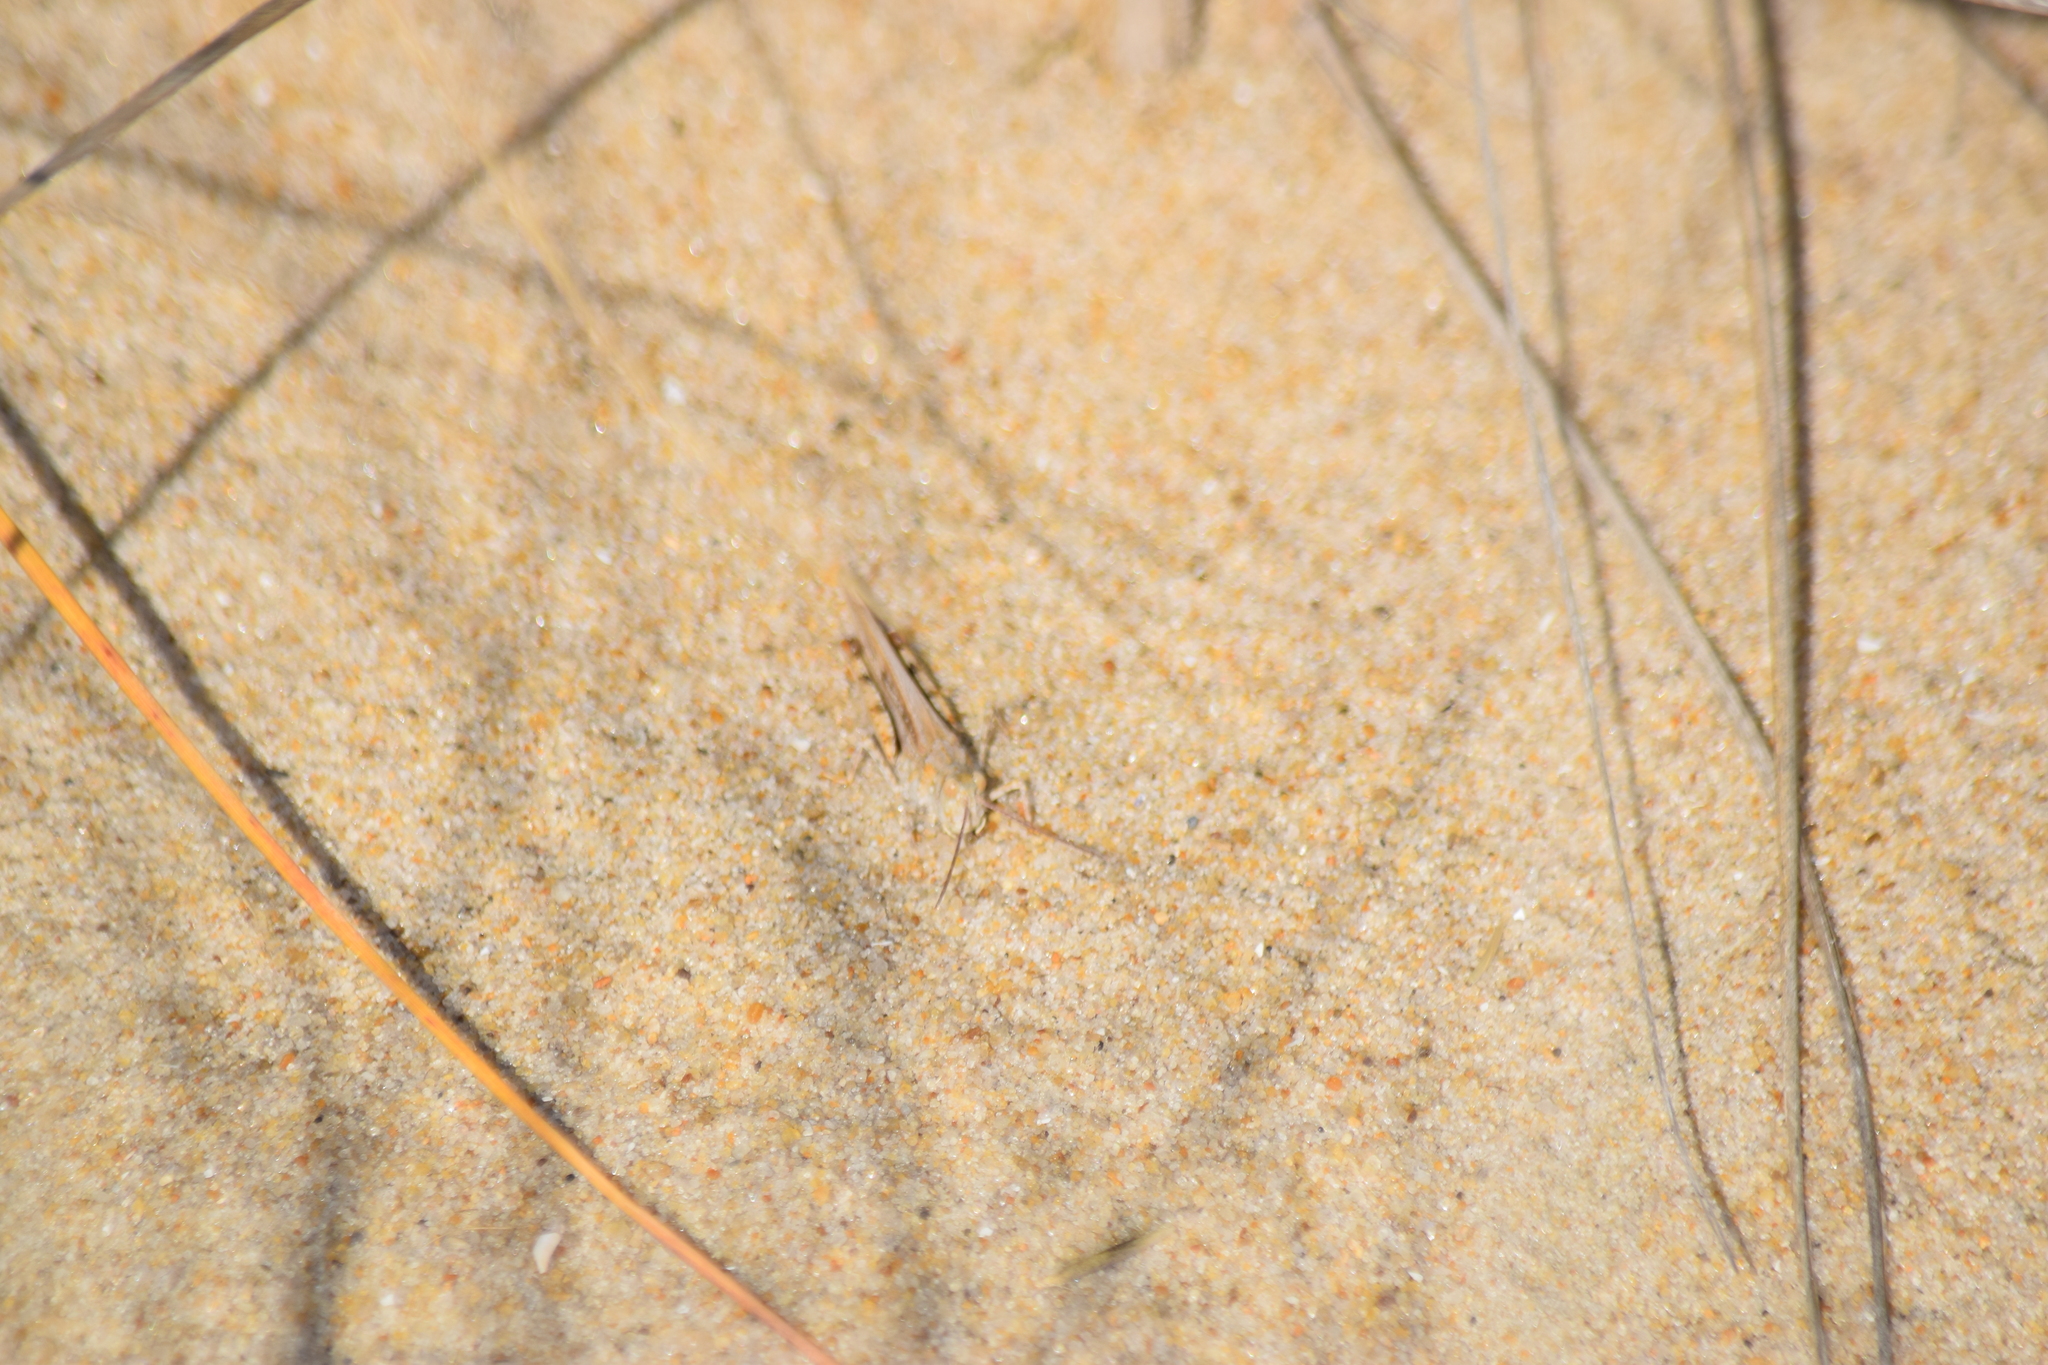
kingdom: Animalia
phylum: Arthropoda
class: Insecta
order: Orthoptera
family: Acrididae
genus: Trimerotropis
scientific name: Trimerotropis maritima
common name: Seaside locust
